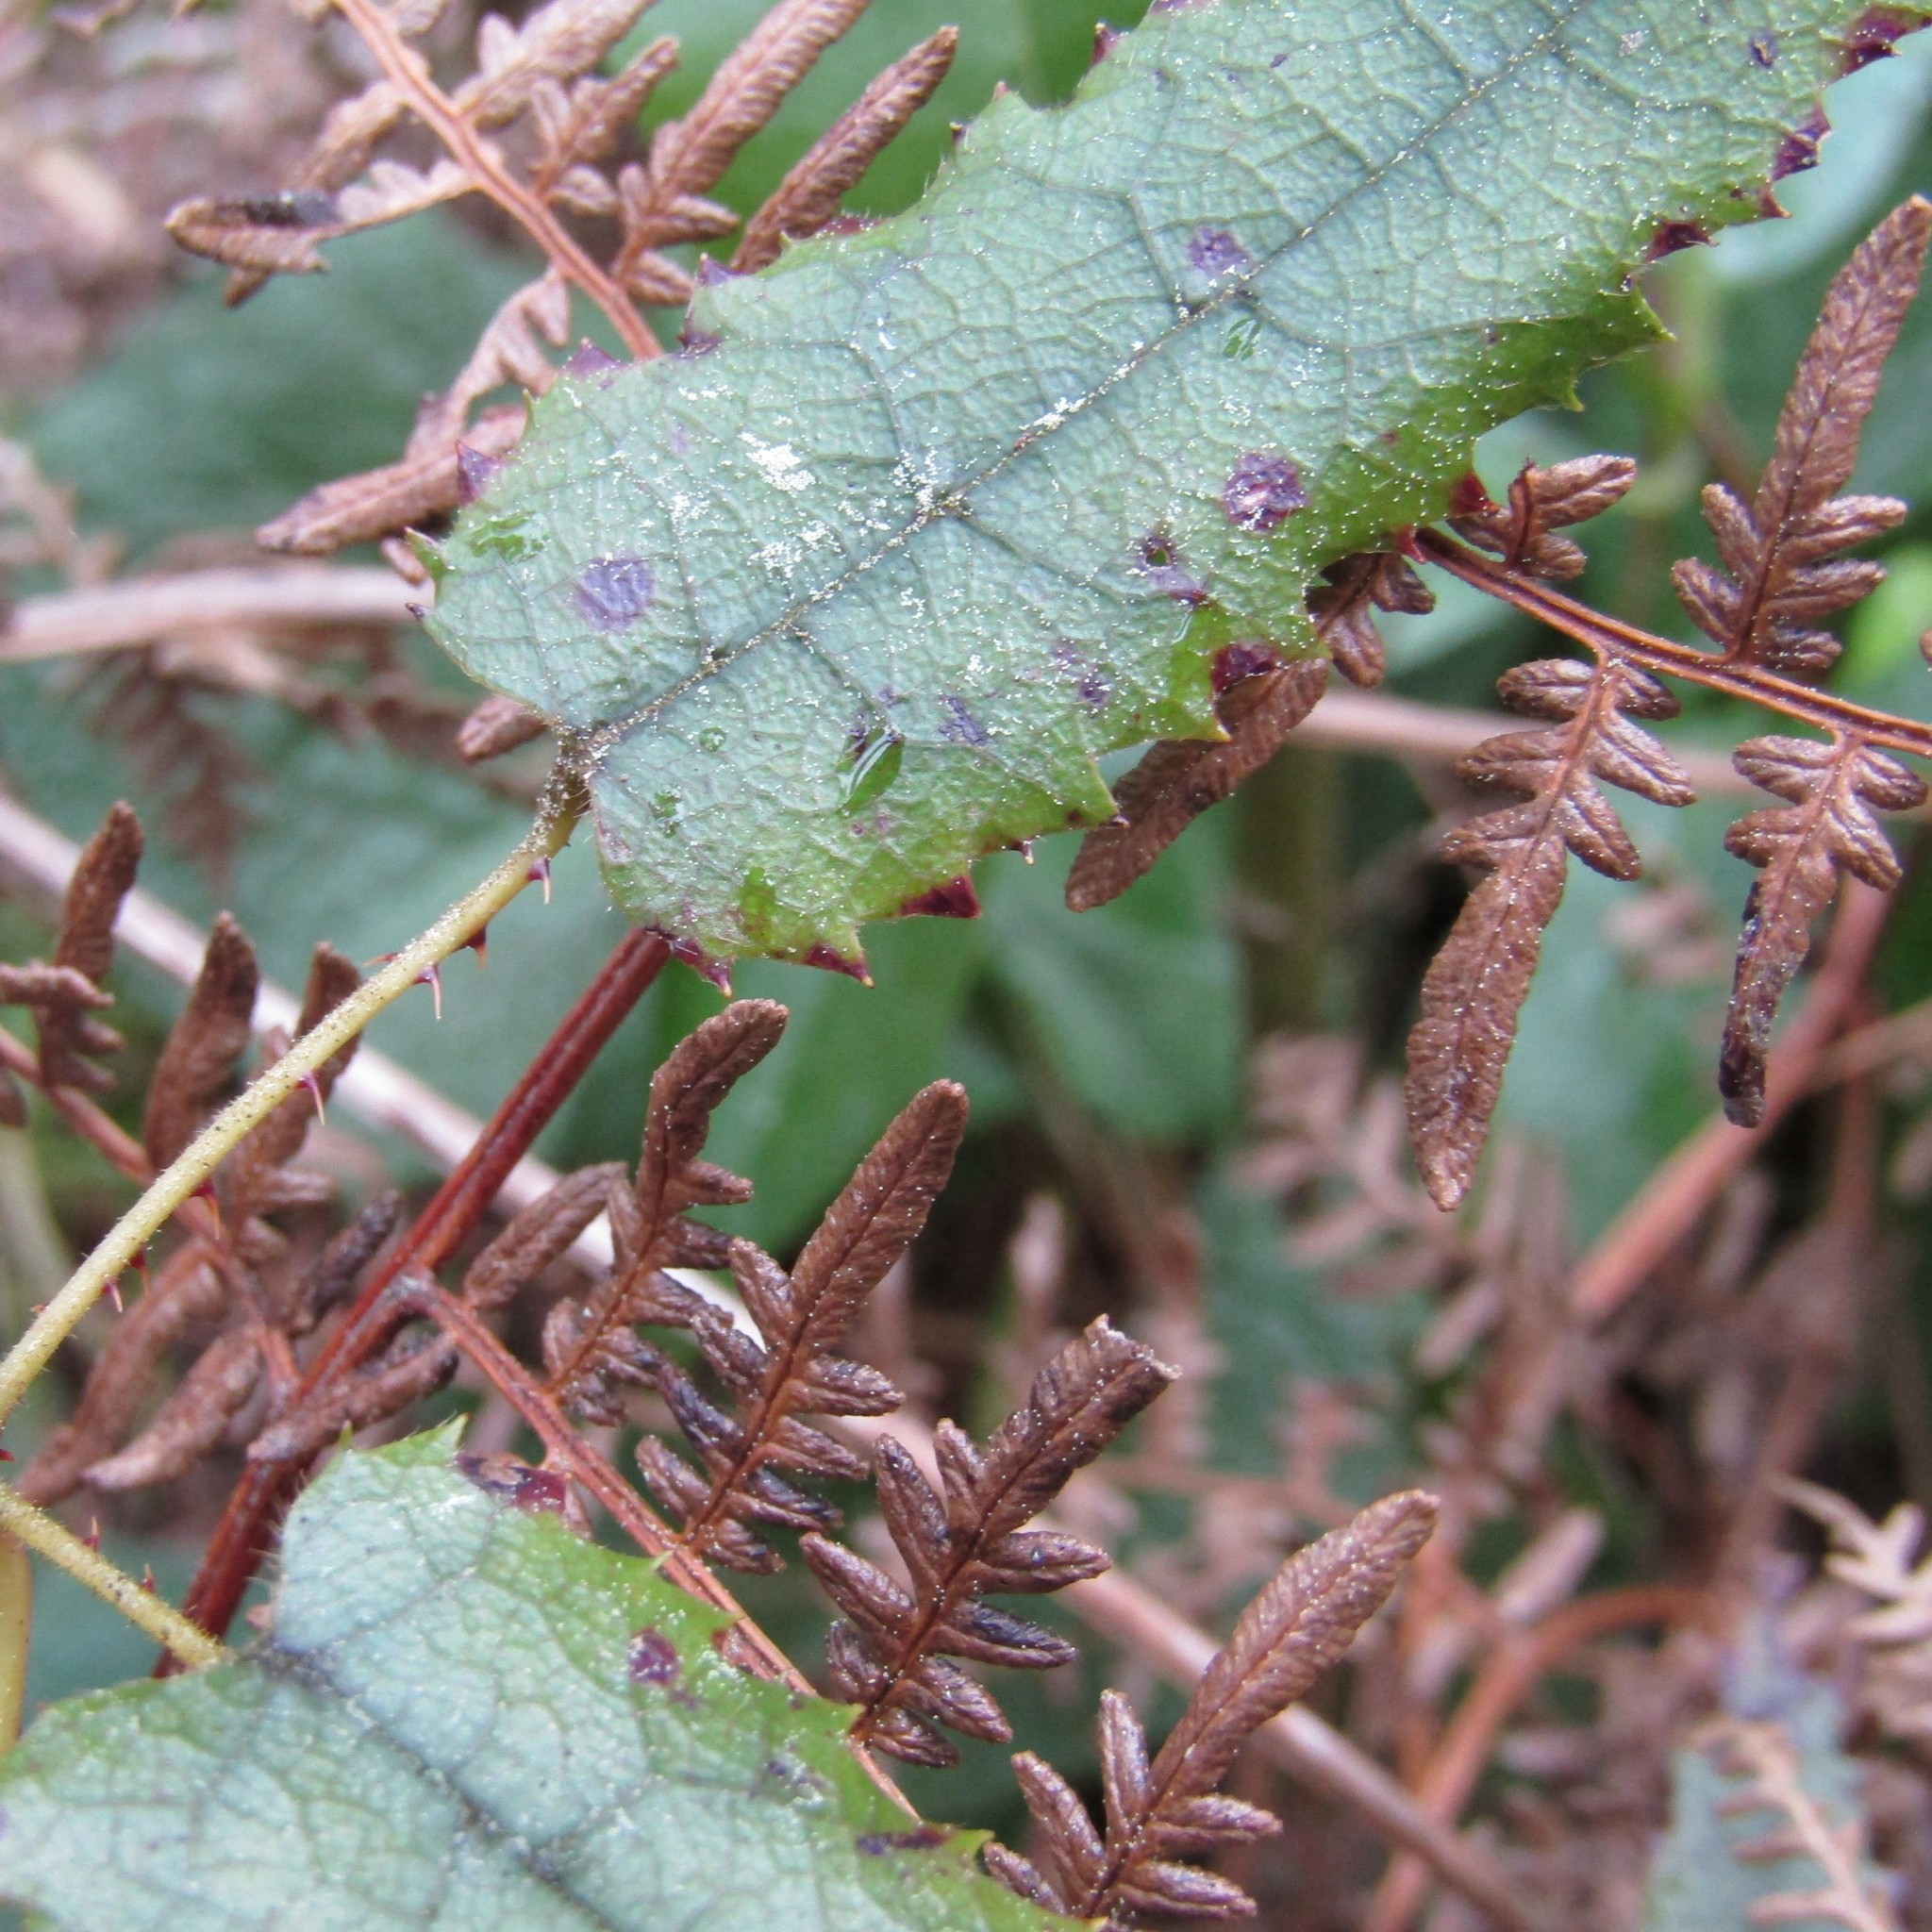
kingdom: Plantae
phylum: Tracheophyta
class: Magnoliopsida
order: Rosales
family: Rosaceae
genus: Rubus
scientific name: Rubus cissoides
